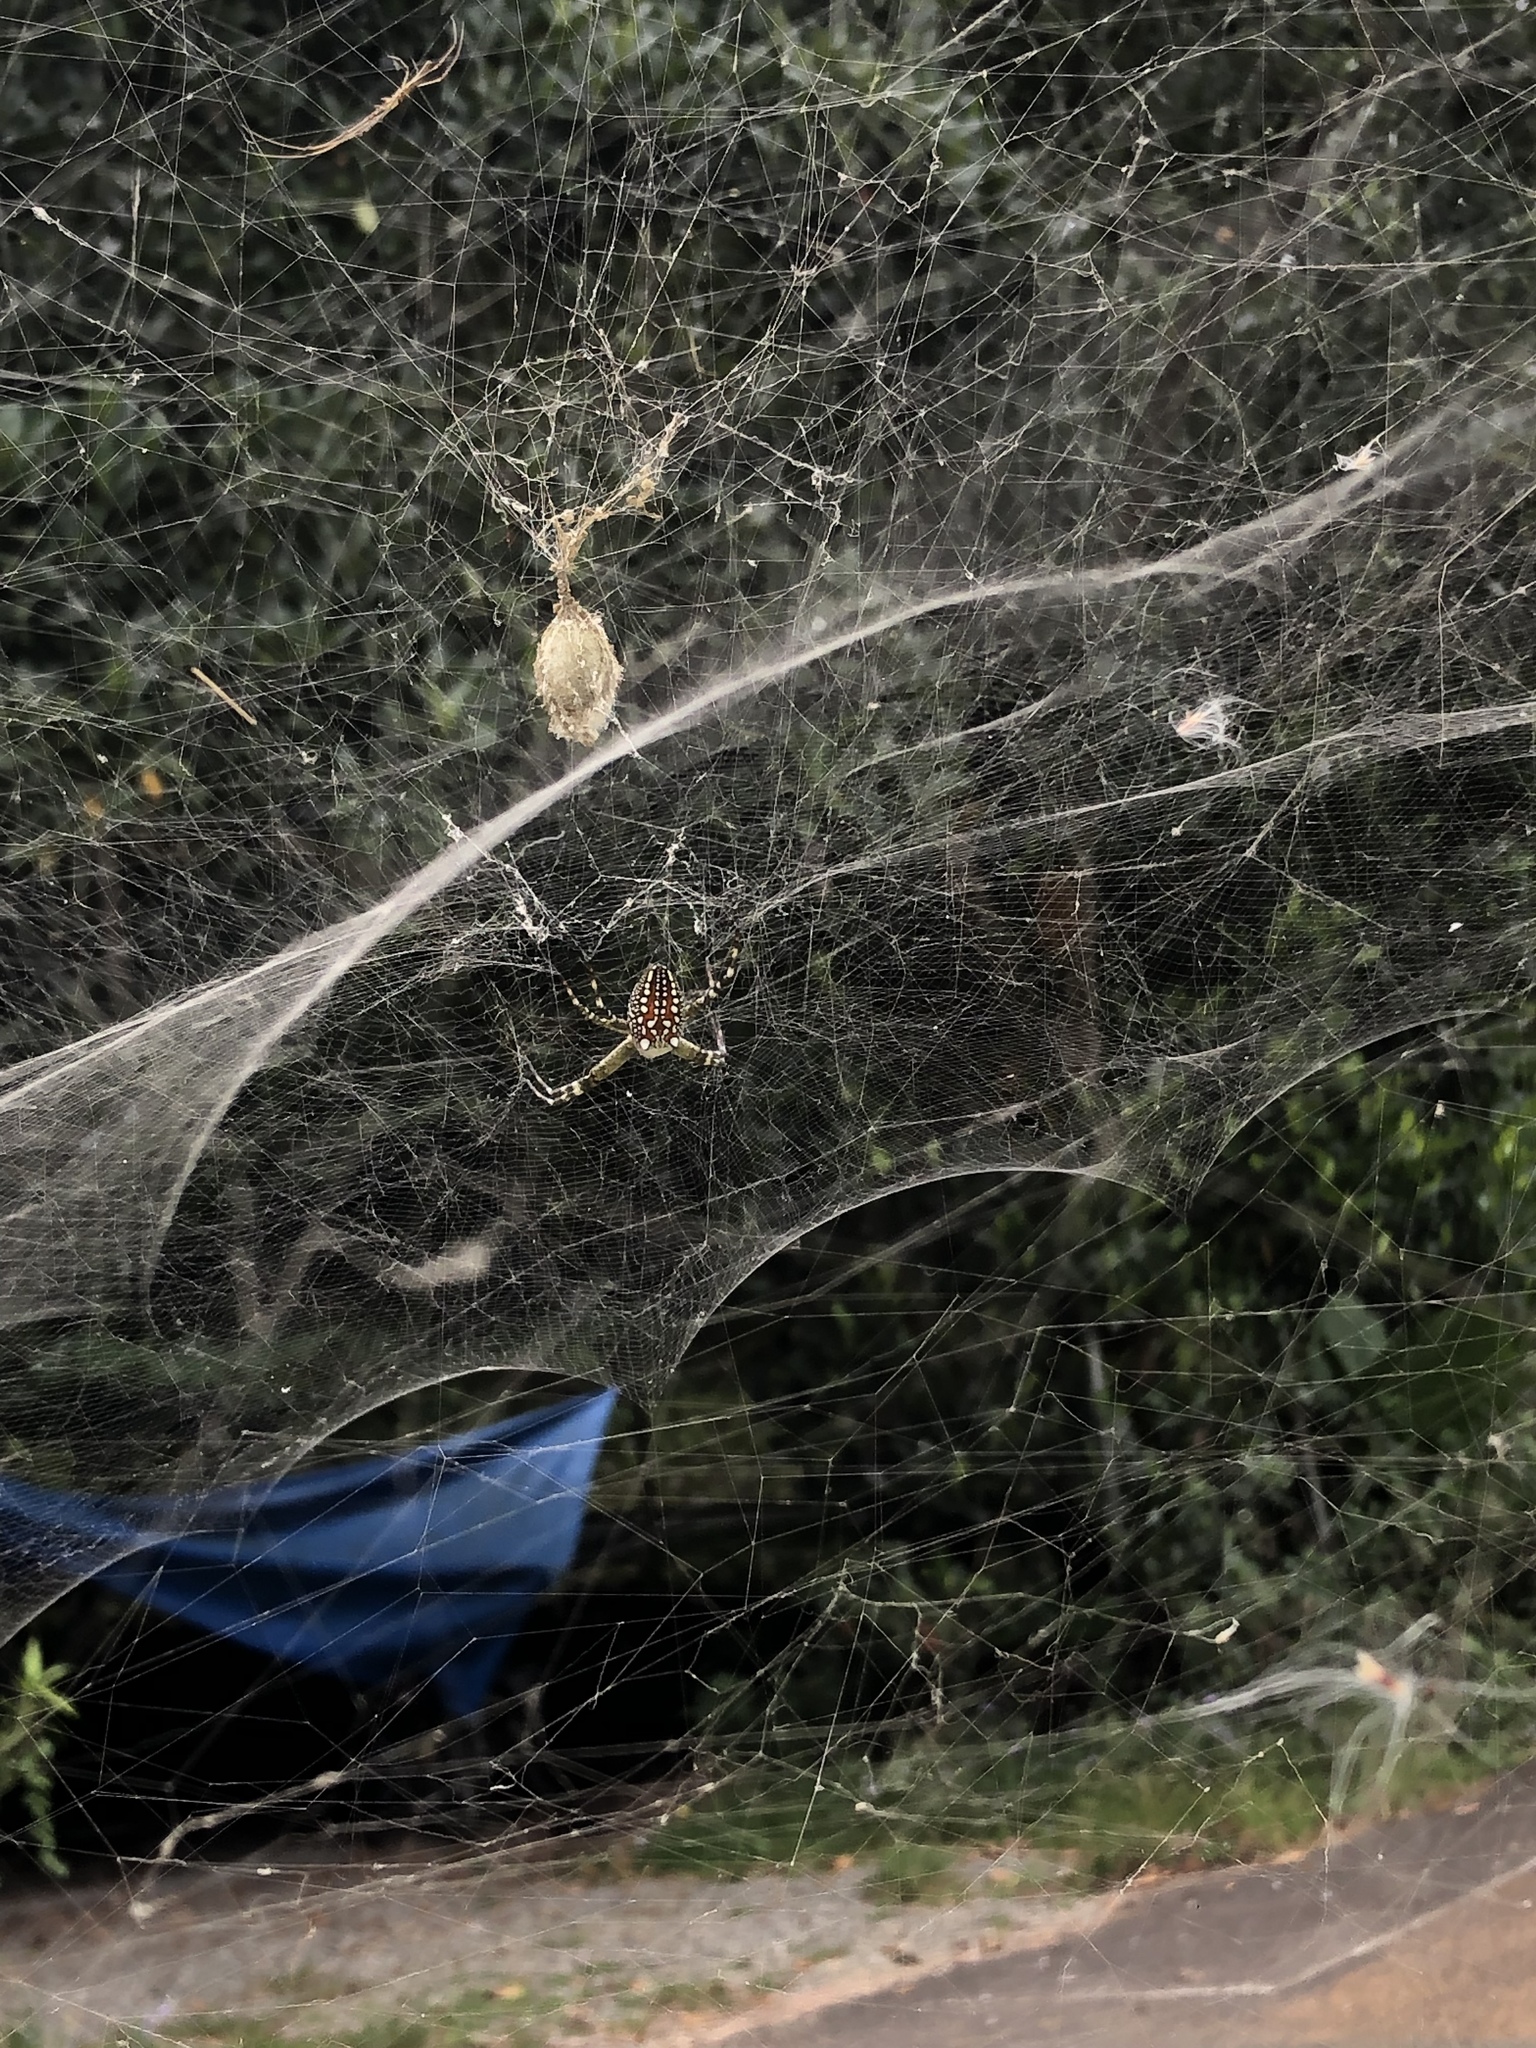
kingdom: Chromista
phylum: Ochrophyta
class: Dictyochophyceae
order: Pedinellales
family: Cyrtophoraceae
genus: Cyrtophora
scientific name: Cyrtophora moluccensis
